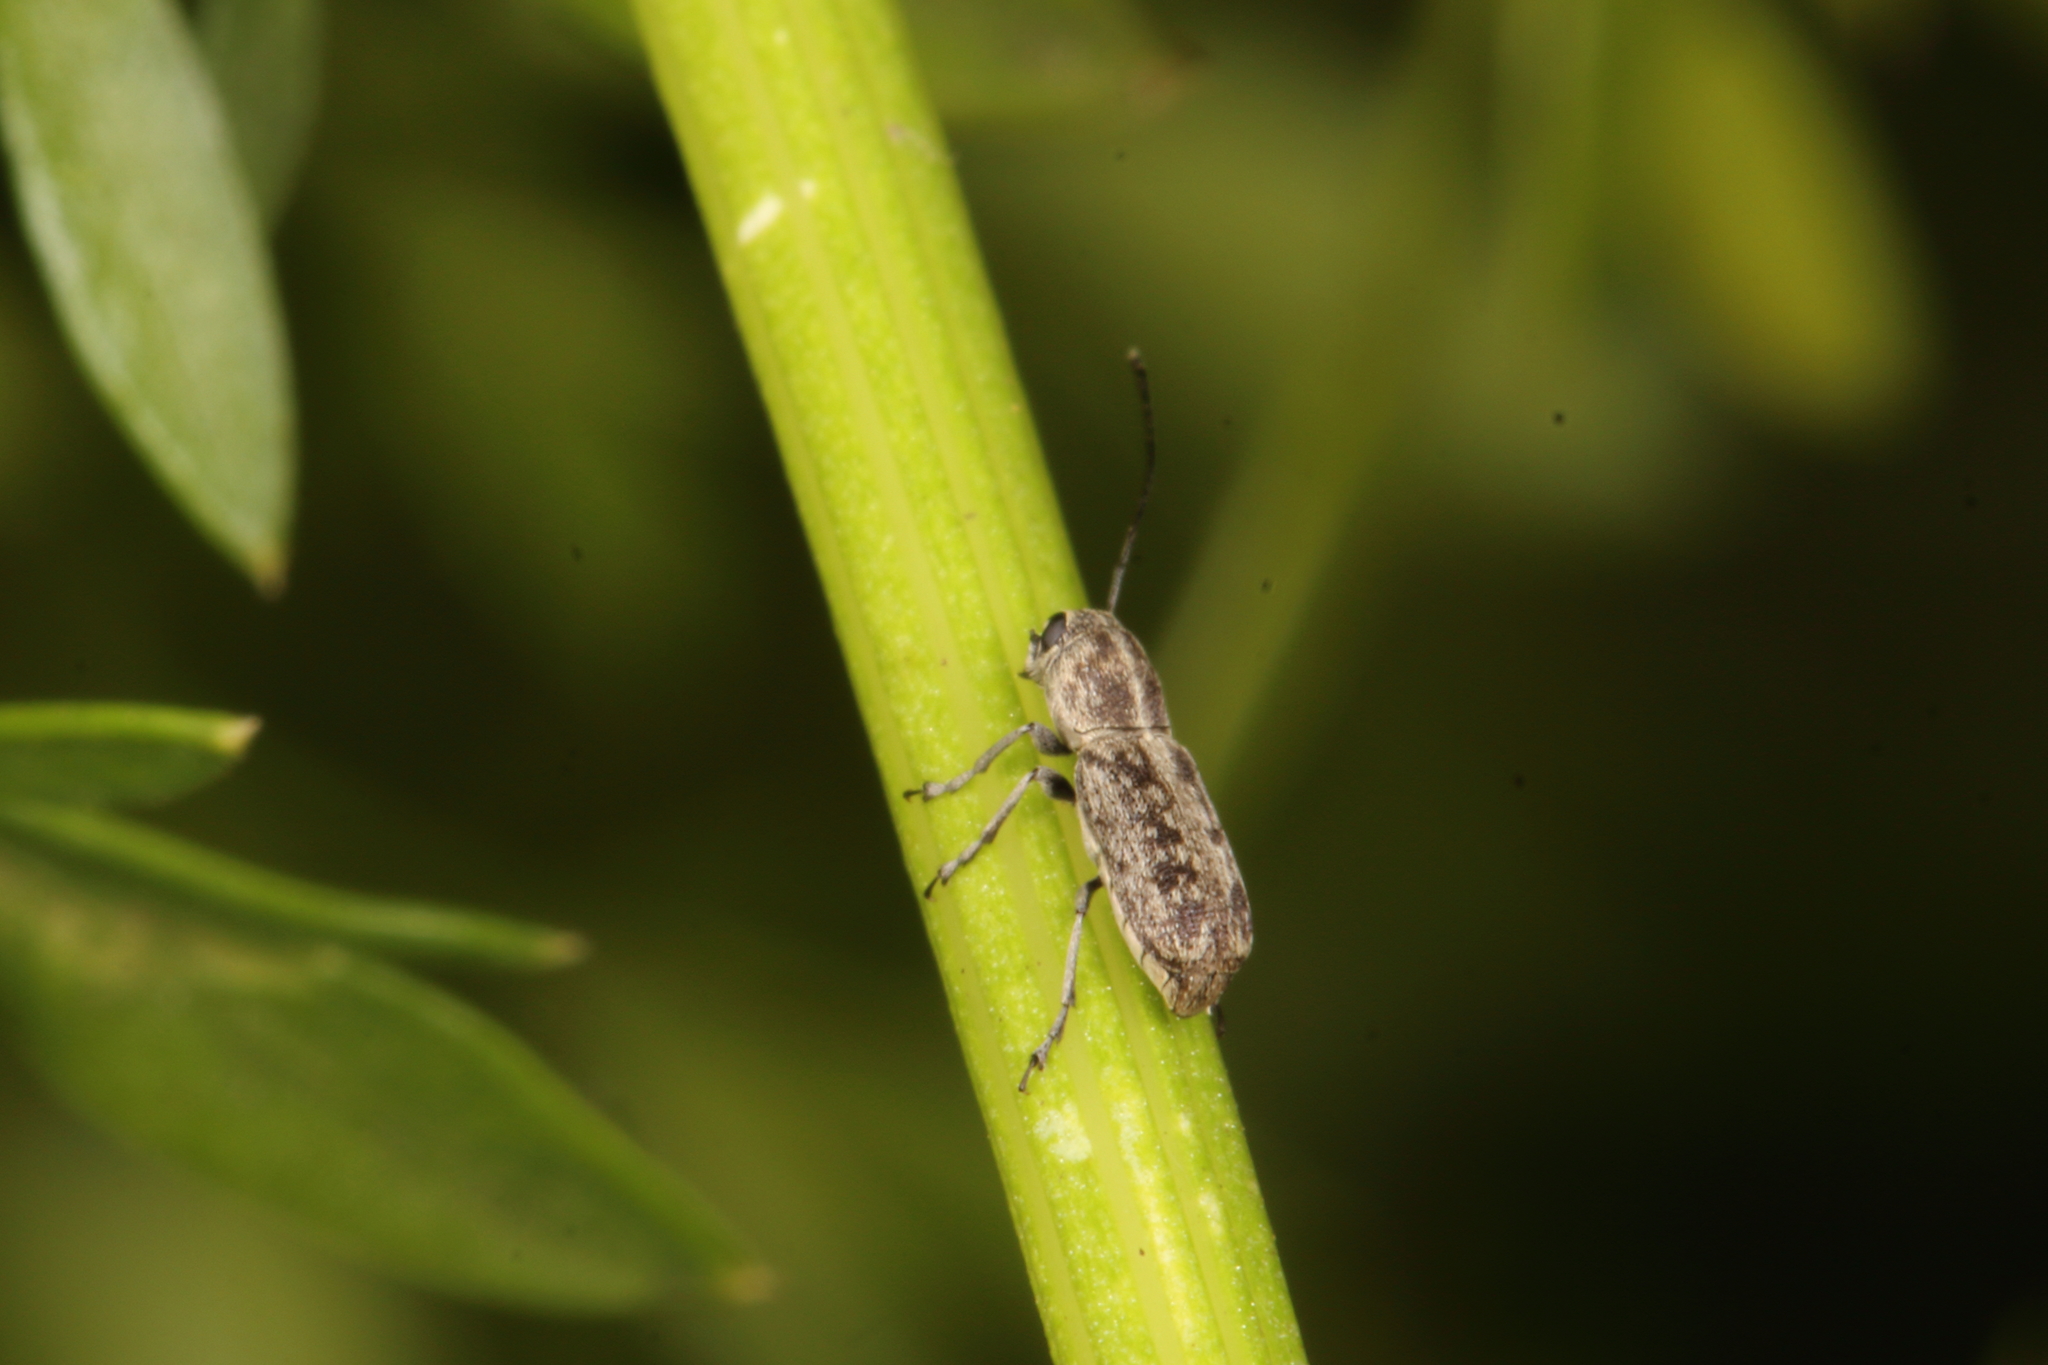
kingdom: Animalia
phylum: Arthropoda
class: Insecta
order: Coleoptera
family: Anthribidae
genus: Euciodes
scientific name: Euciodes suturalis
